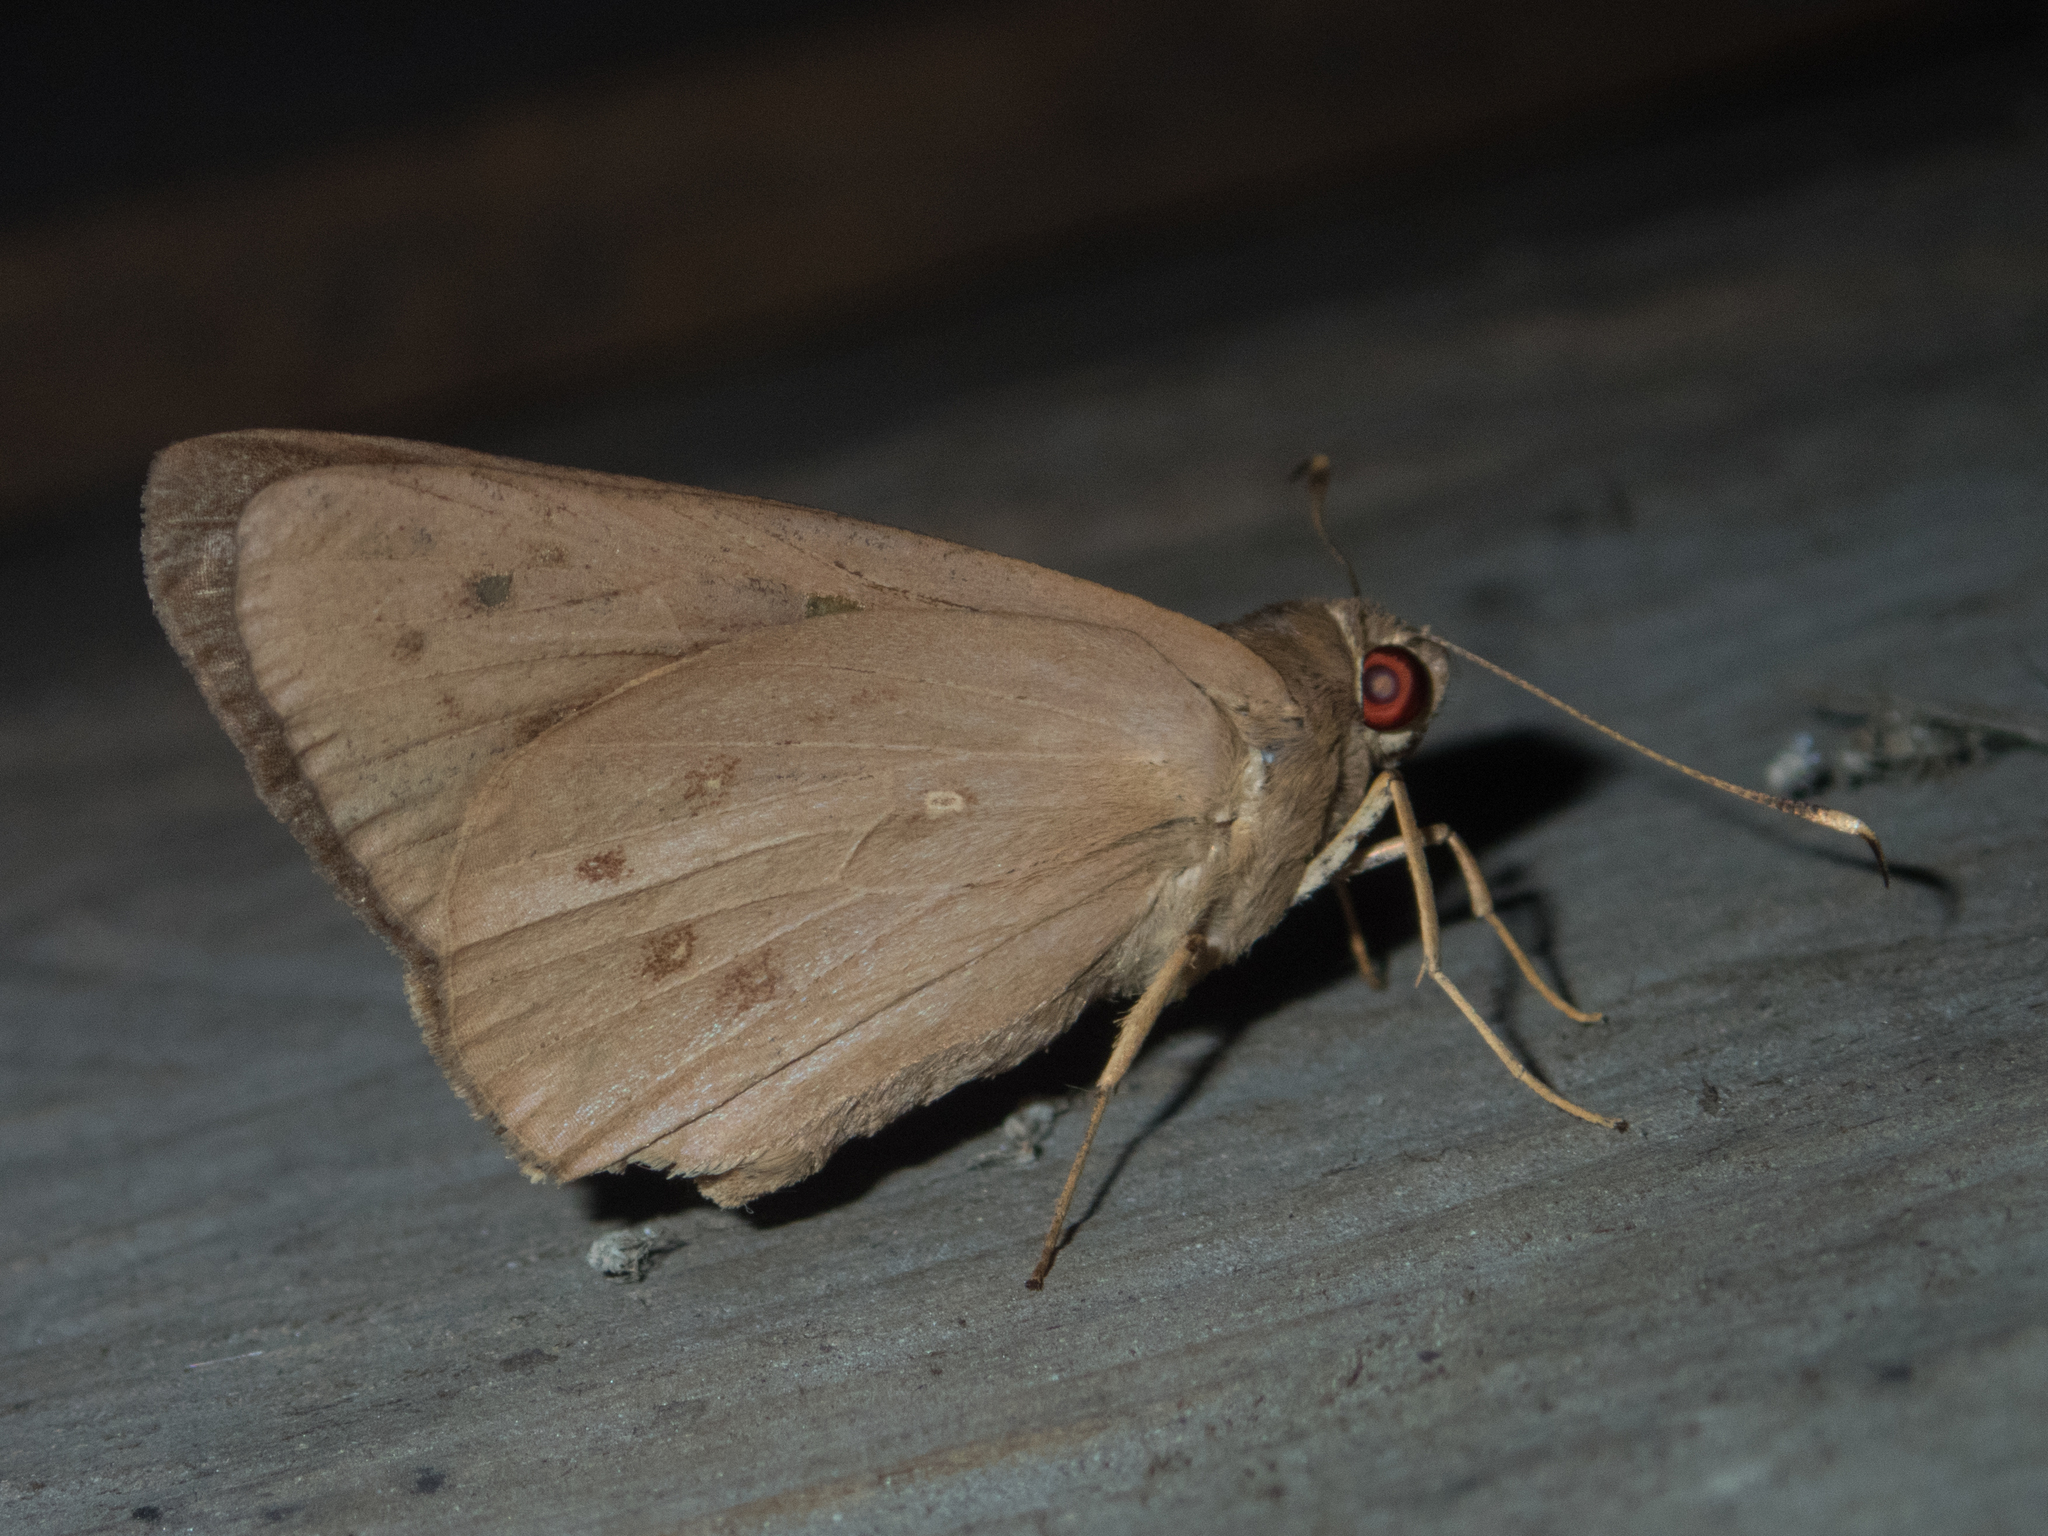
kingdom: Animalia
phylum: Arthropoda
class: Insecta
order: Lepidoptera
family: Hesperiidae
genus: Hidari
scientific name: Hidari irava
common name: Coconut skipper
